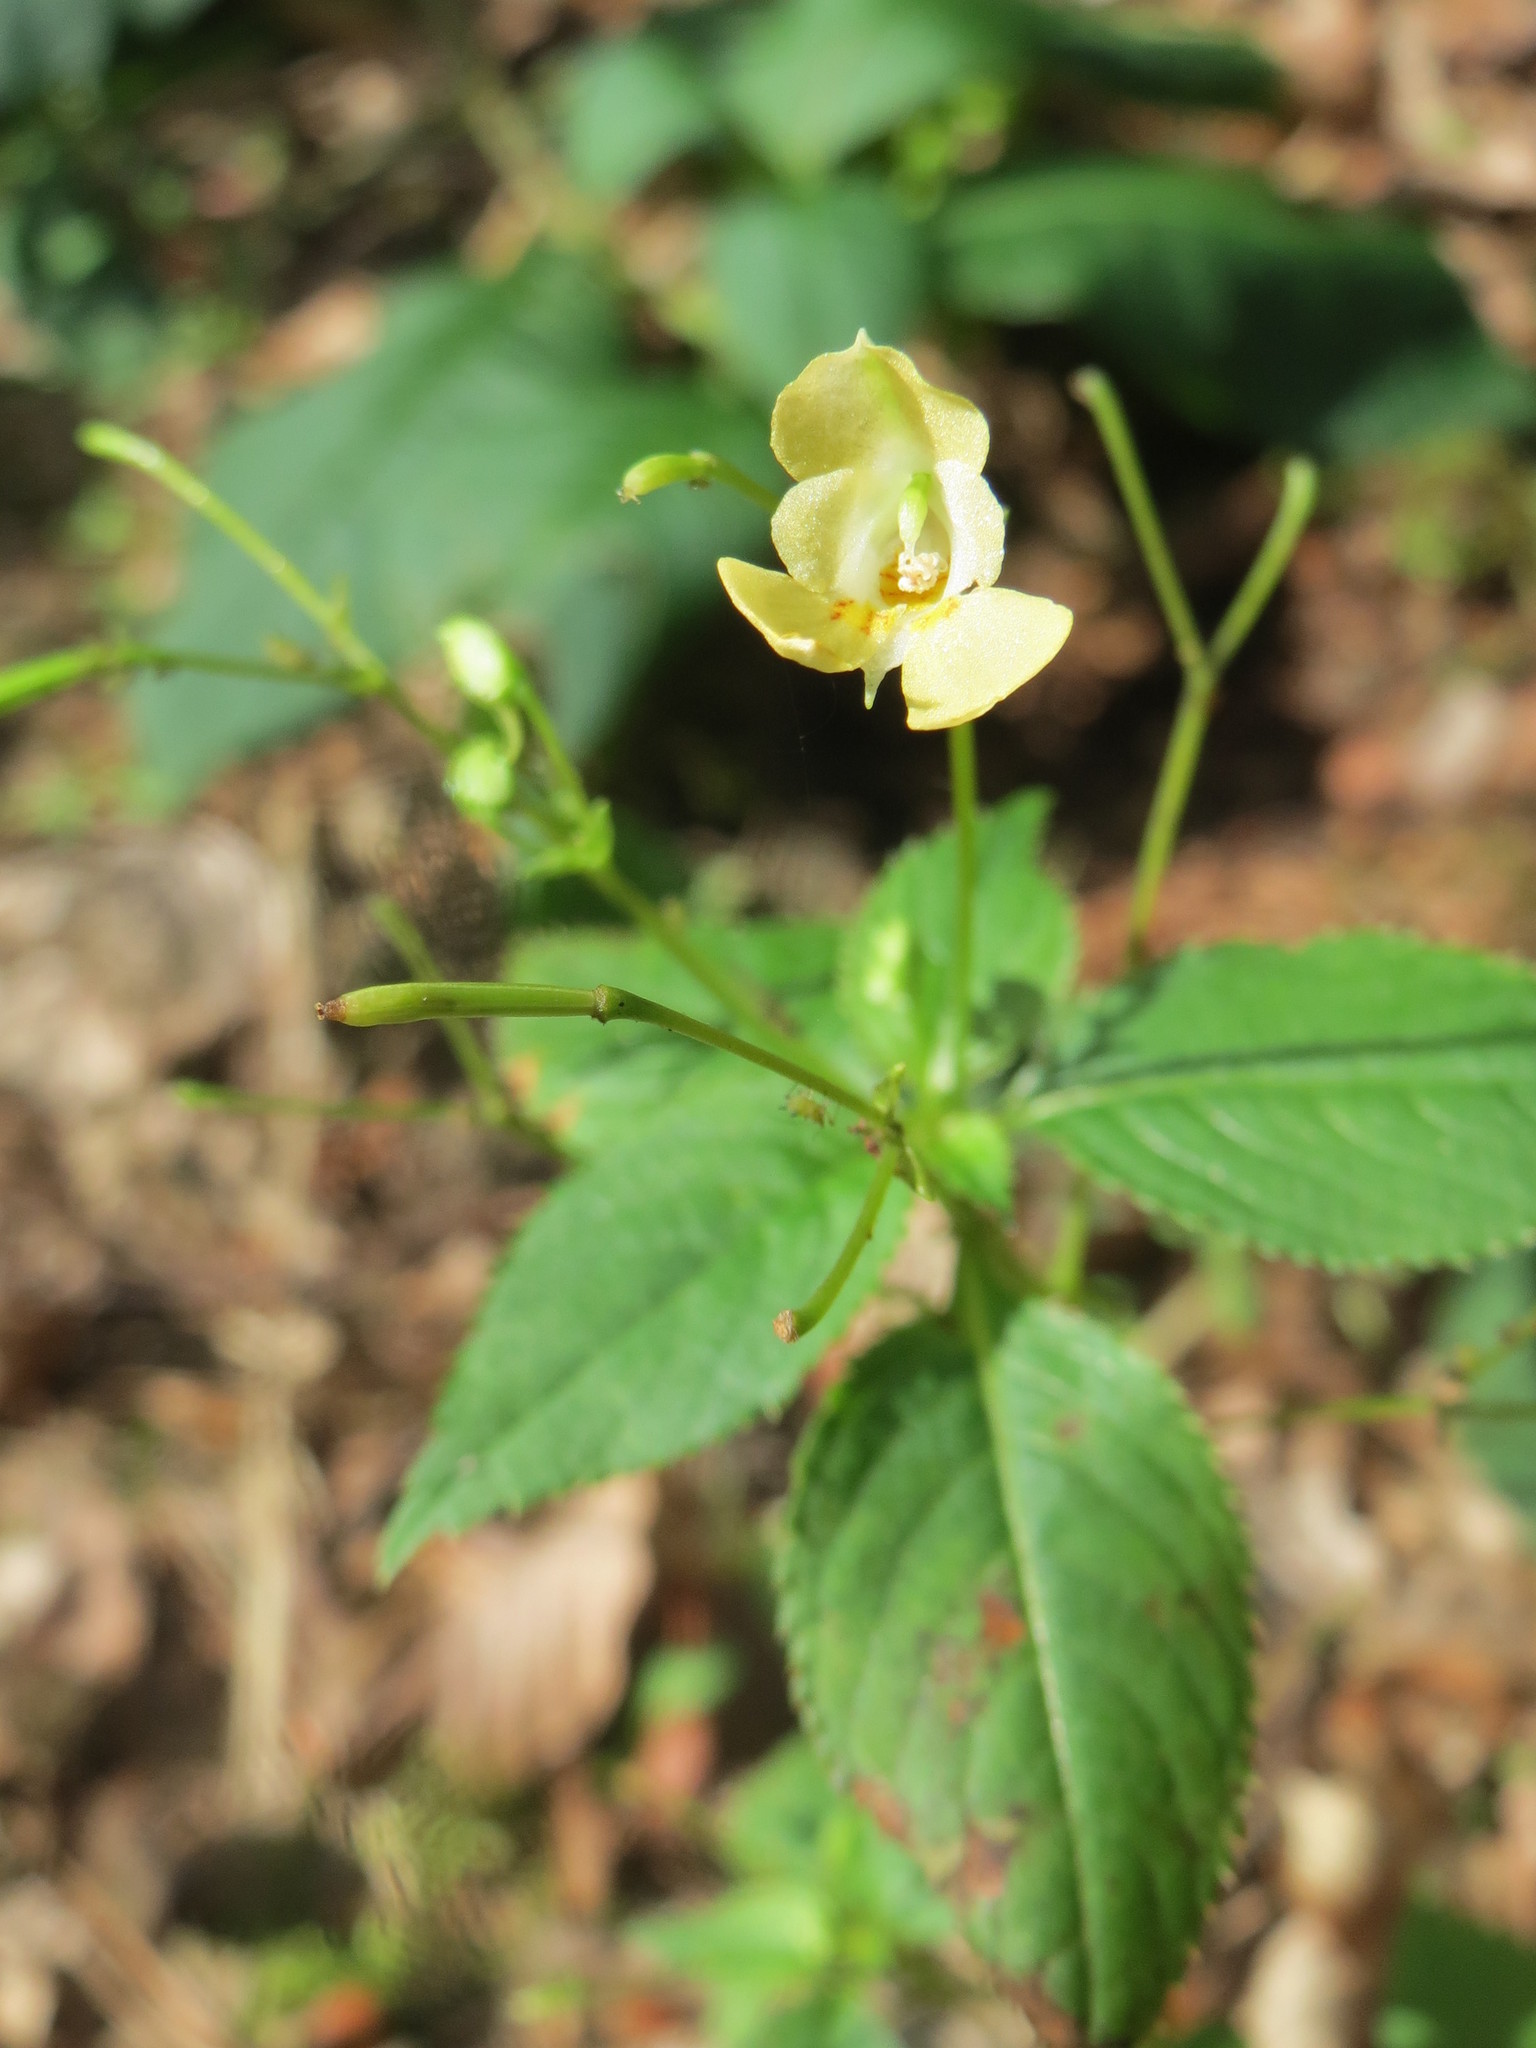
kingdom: Plantae
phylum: Tracheophyta
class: Magnoliopsida
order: Ericales
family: Balsaminaceae
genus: Impatiens
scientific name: Impatiens parviflora
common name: Small balsam
